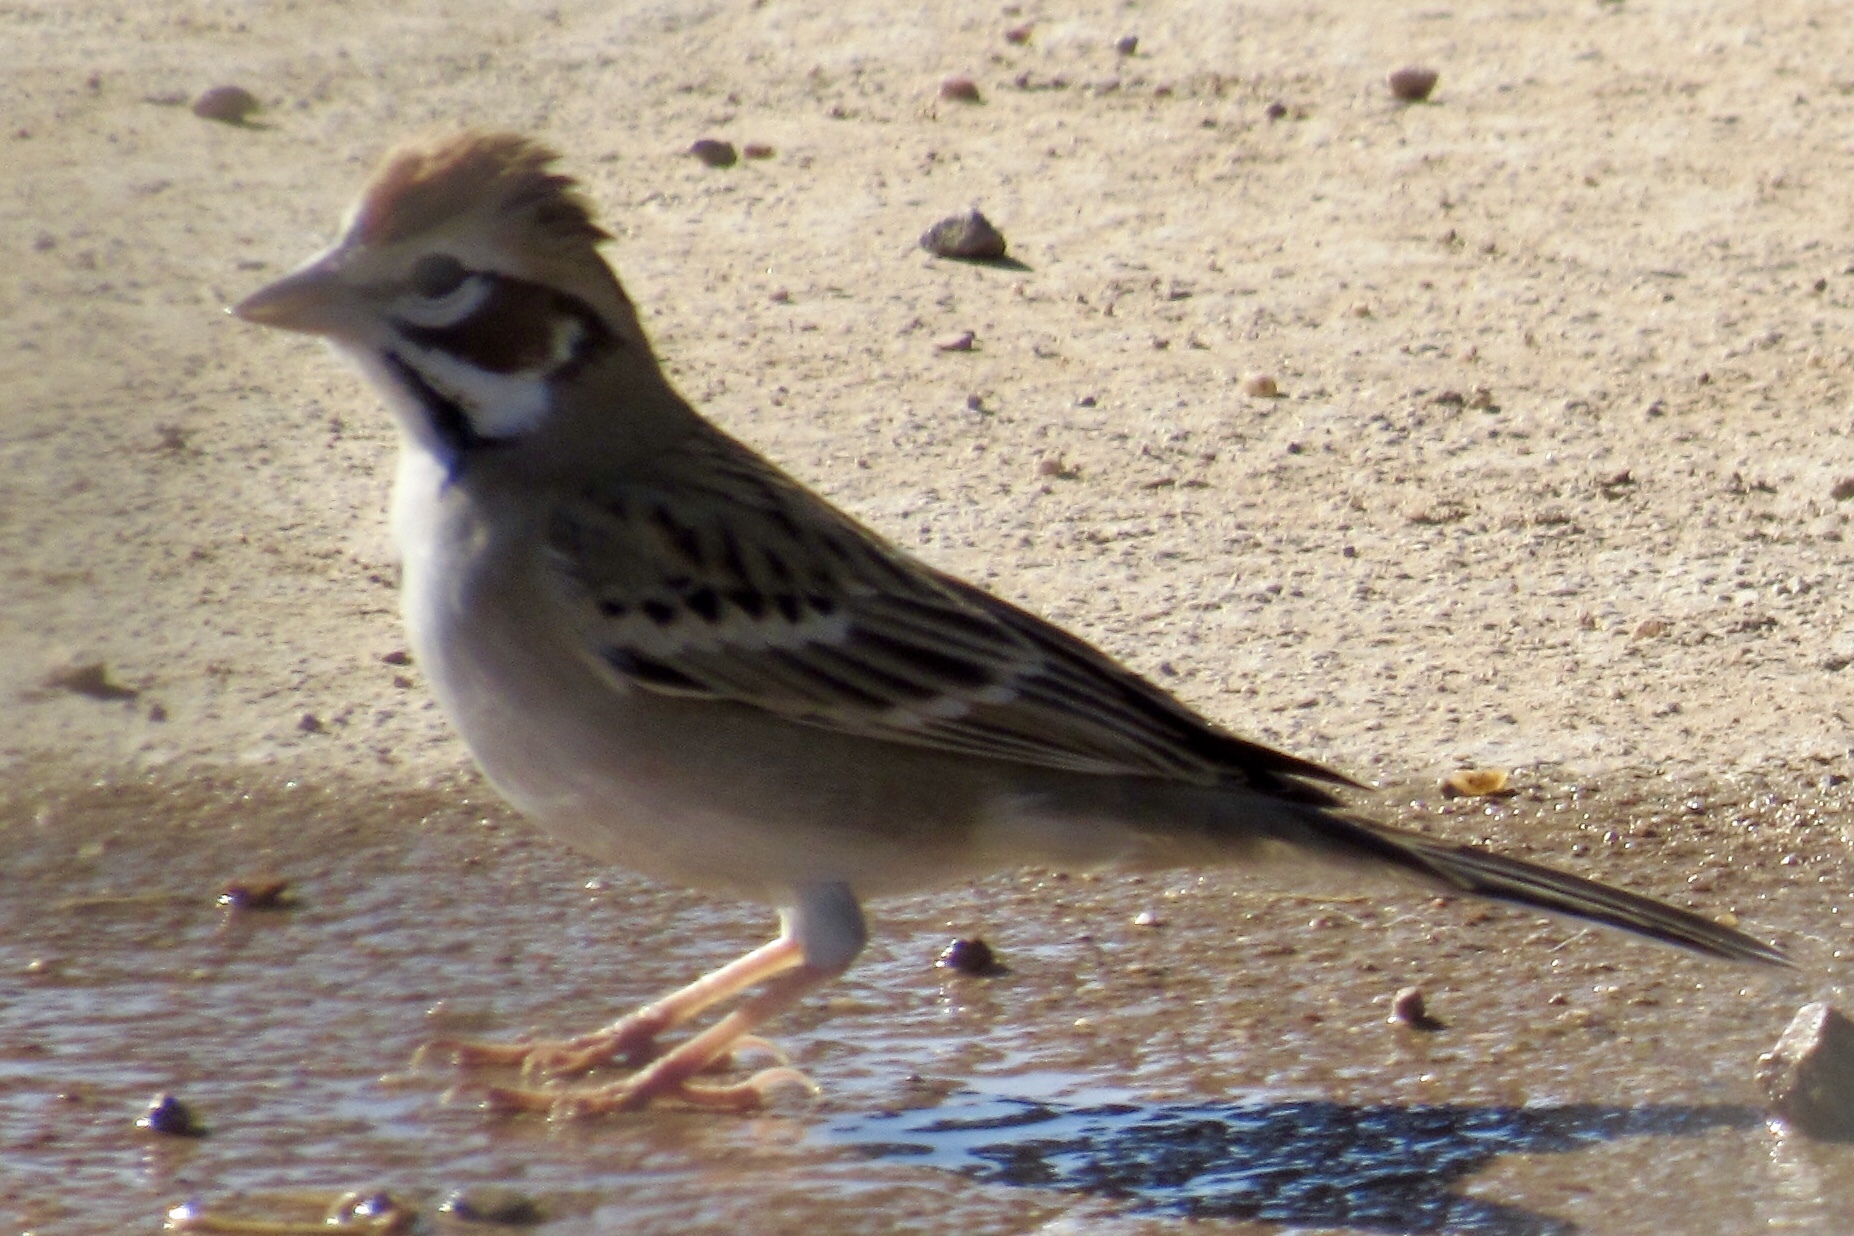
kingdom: Animalia
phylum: Chordata
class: Aves
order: Passeriformes
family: Passerellidae
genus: Chondestes
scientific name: Chondestes grammacus
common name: Lark sparrow
